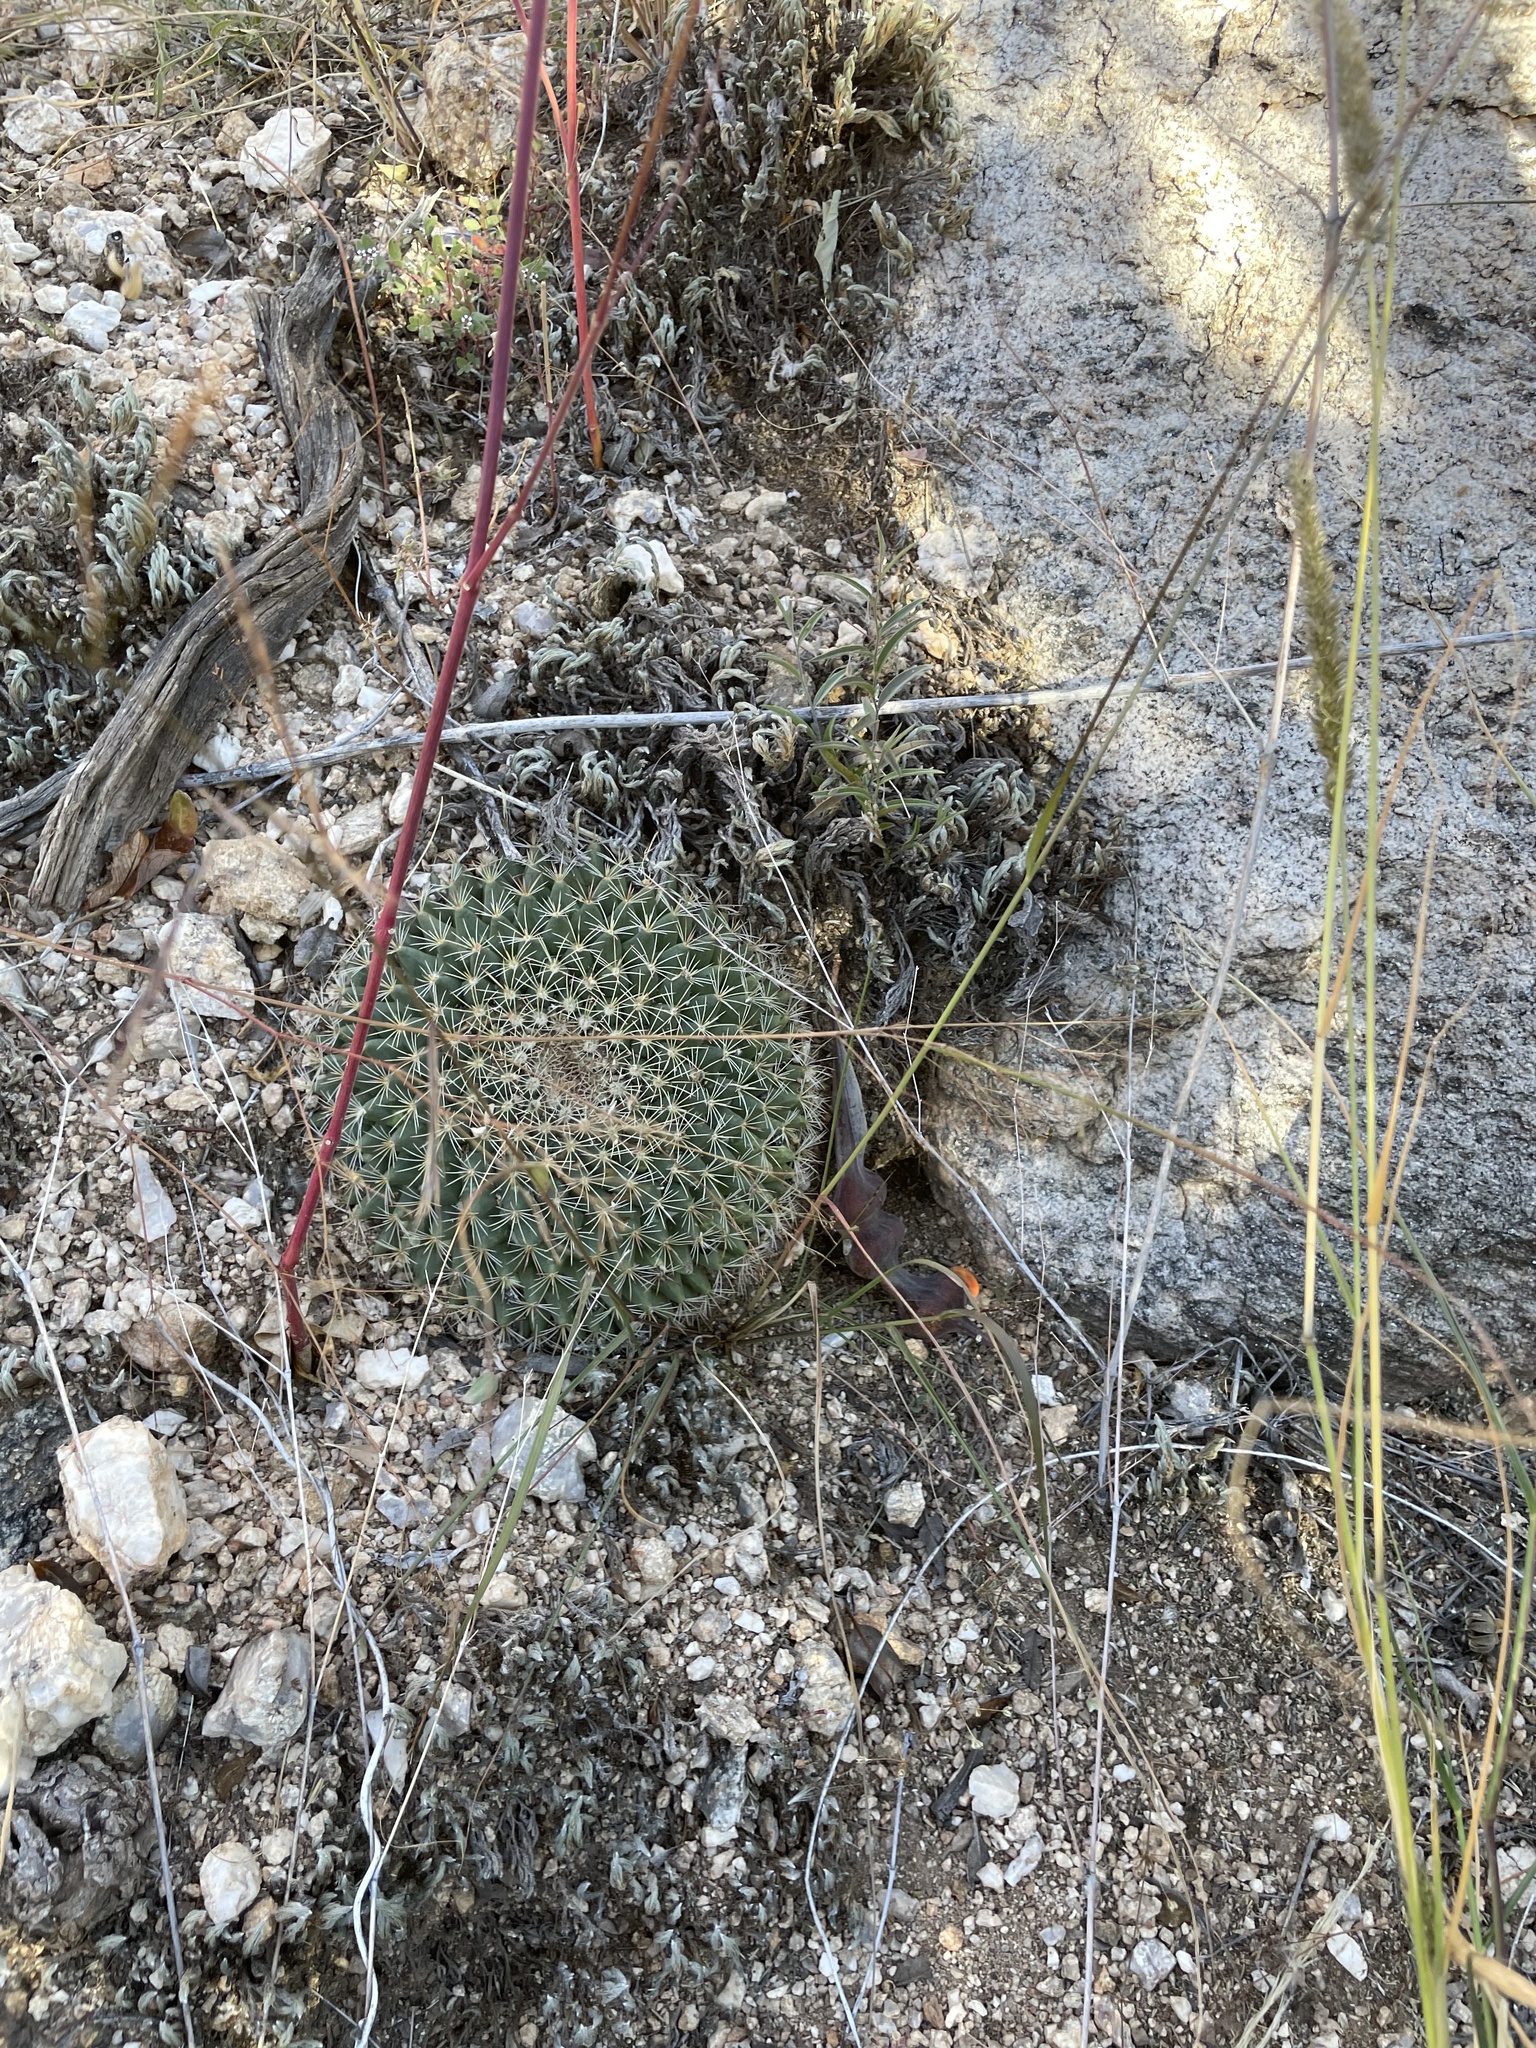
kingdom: Plantae
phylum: Tracheophyta
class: Magnoliopsida
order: Caryophyllales
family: Cactaceae
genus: Mammillaria
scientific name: Mammillaria heyderi
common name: Little nipple cactus
